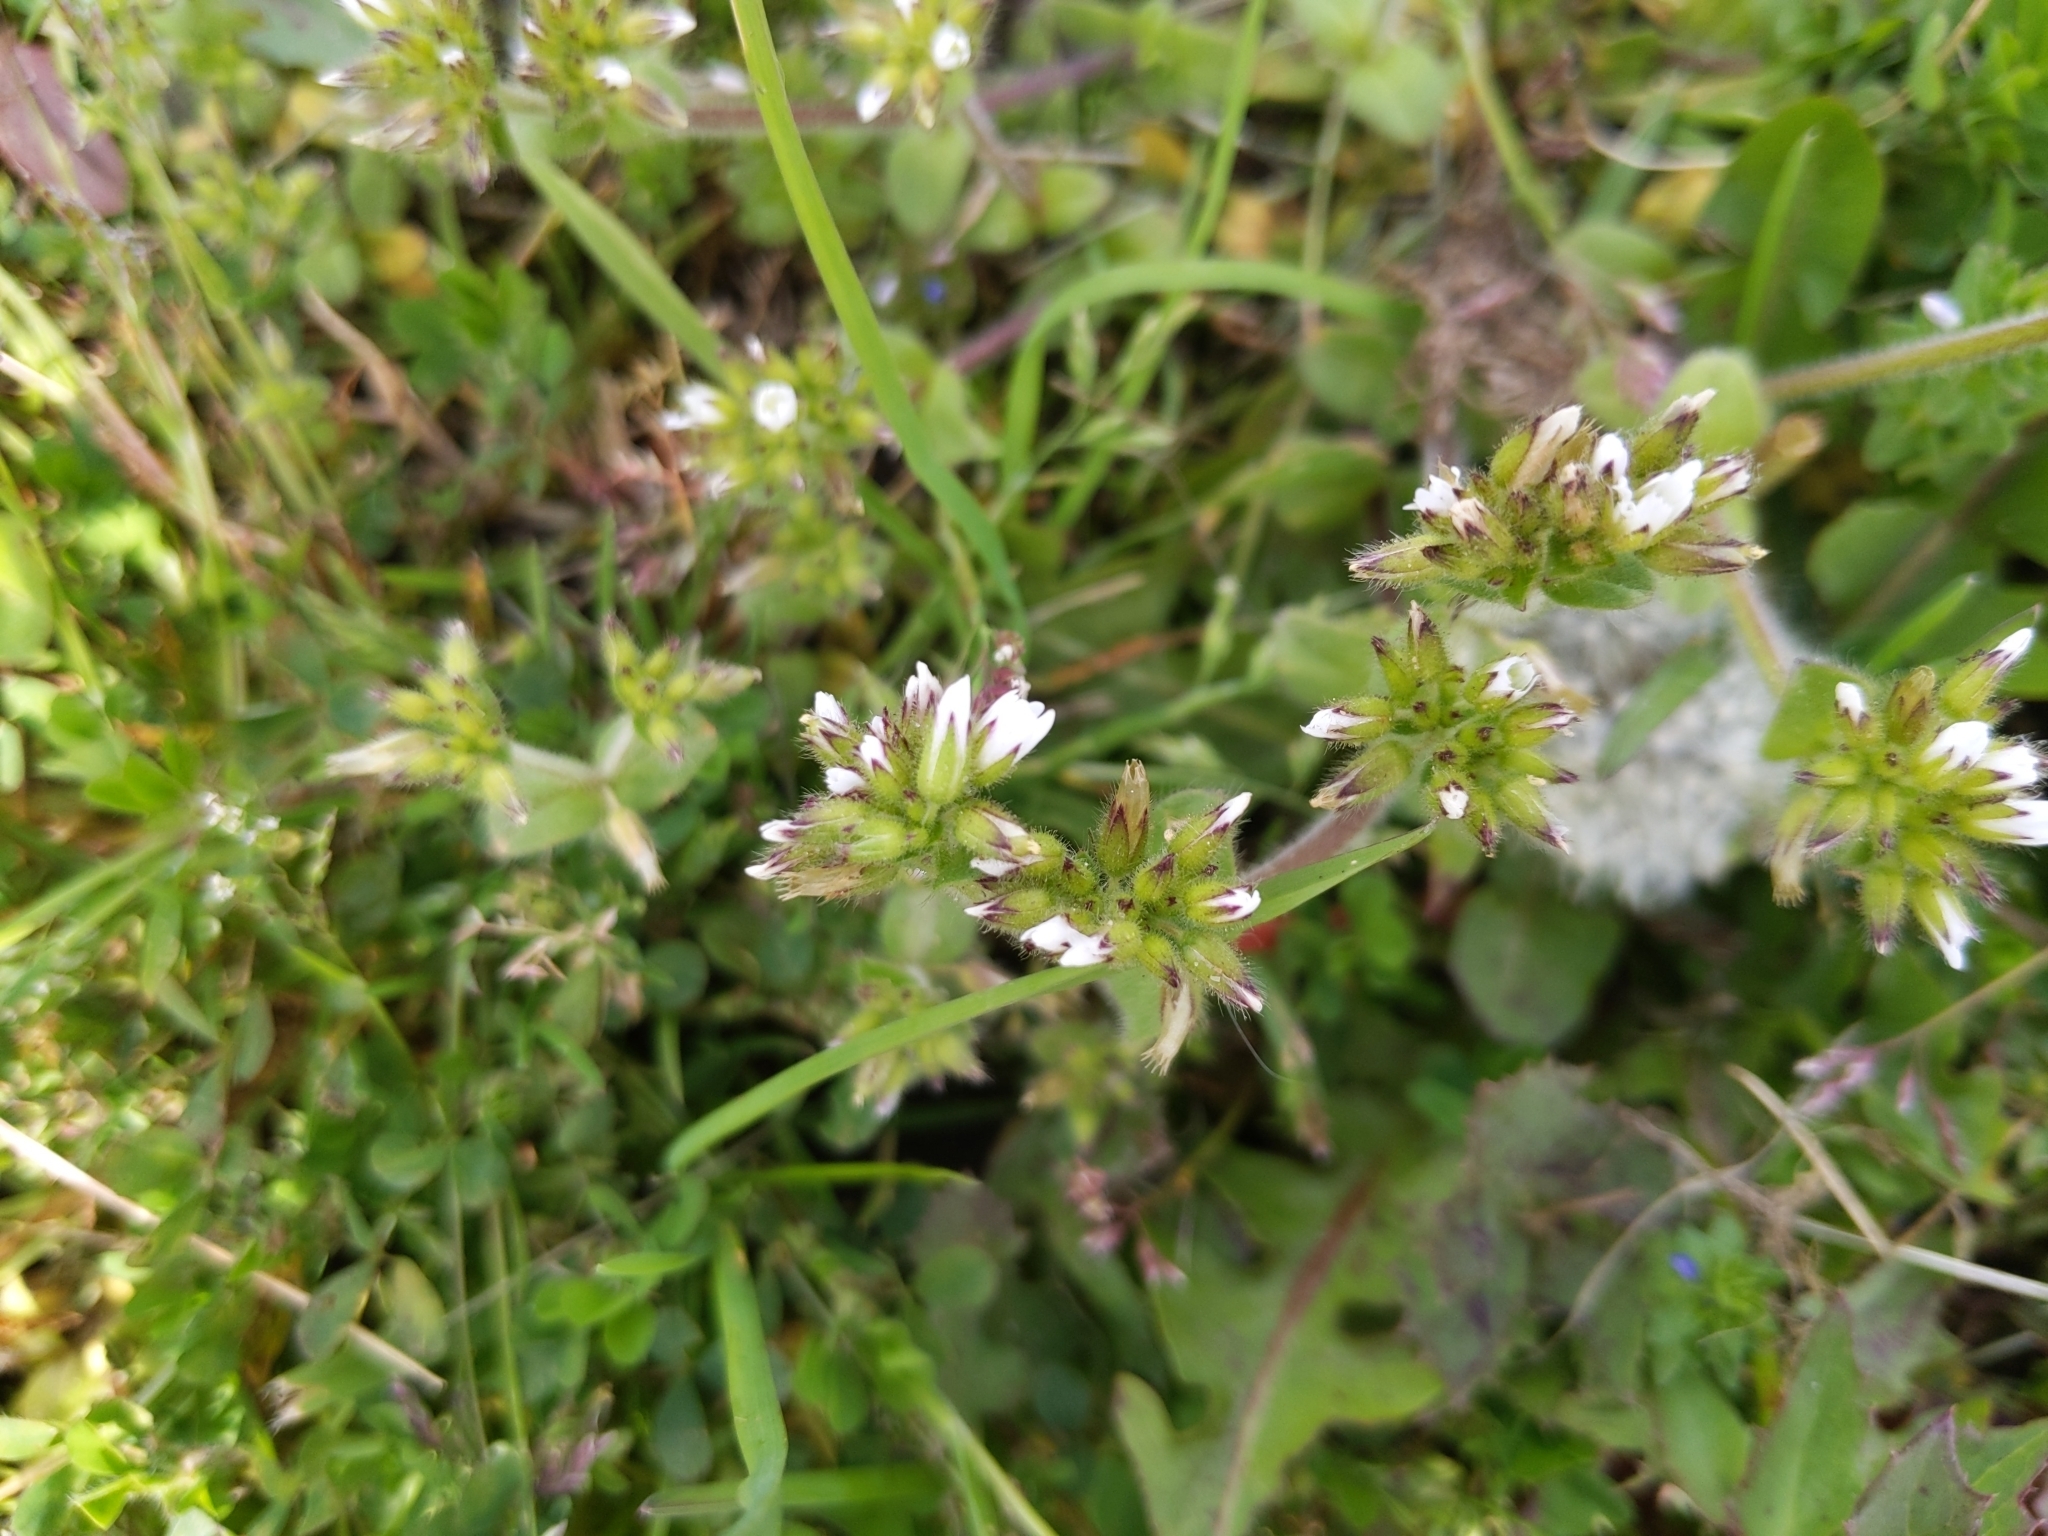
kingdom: Plantae
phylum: Tracheophyta
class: Magnoliopsida
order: Caryophyllales
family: Caryophyllaceae
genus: Cerastium
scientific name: Cerastium glomeratum
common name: Sticky chickweed
